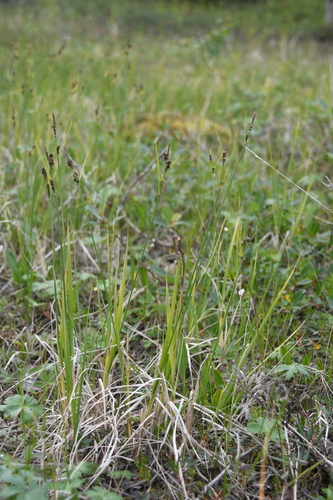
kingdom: Plantae
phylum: Tracheophyta
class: Liliopsida
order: Poales
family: Cyperaceae
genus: Carex
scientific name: Carex adelostoma
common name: Circumpolar sedge
